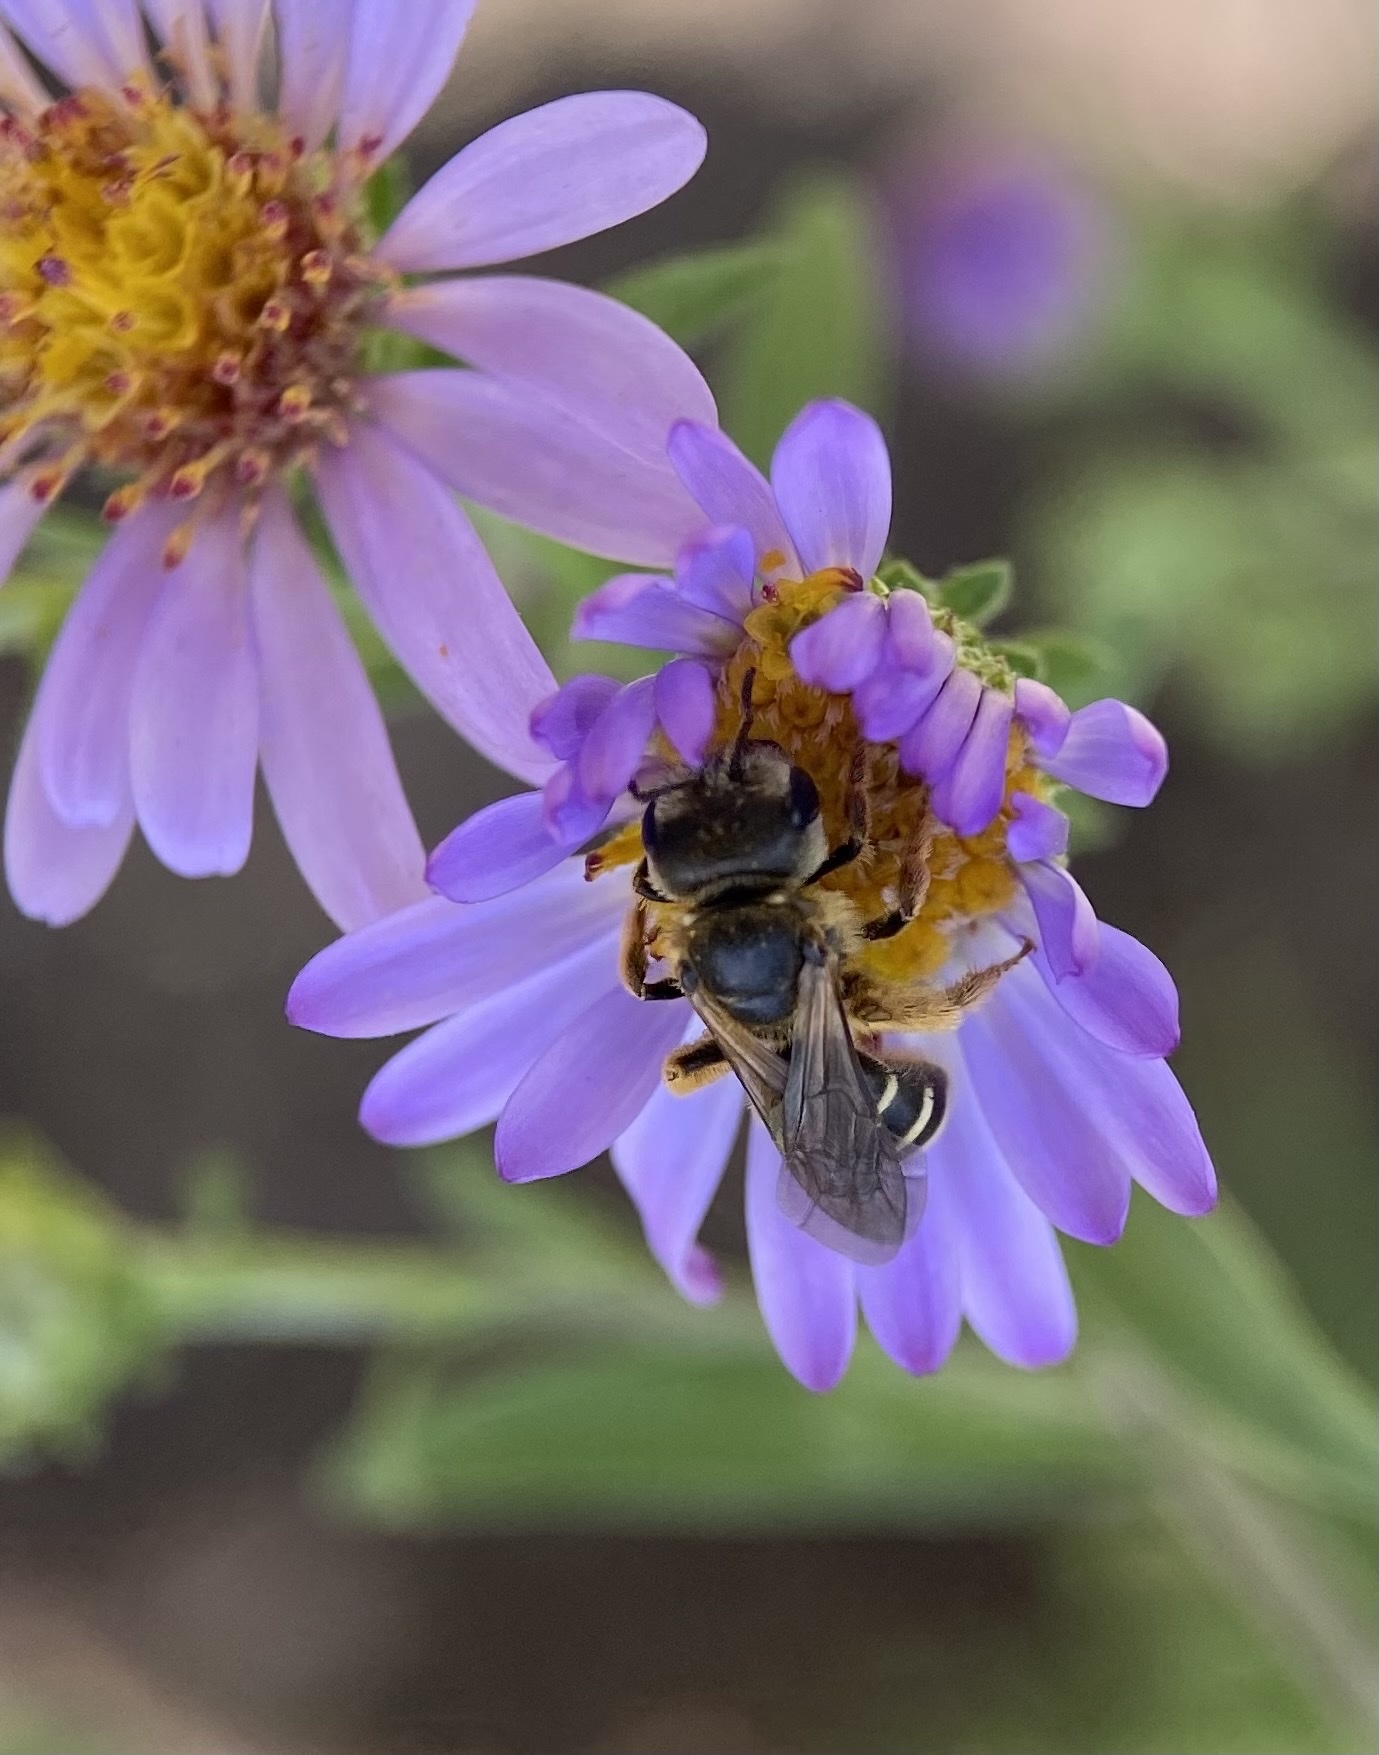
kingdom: Animalia
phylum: Arthropoda
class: Insecta
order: Hymenoptera
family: Halictidae
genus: Halictus
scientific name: Halictus ligatus
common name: Ligated furrow bee
